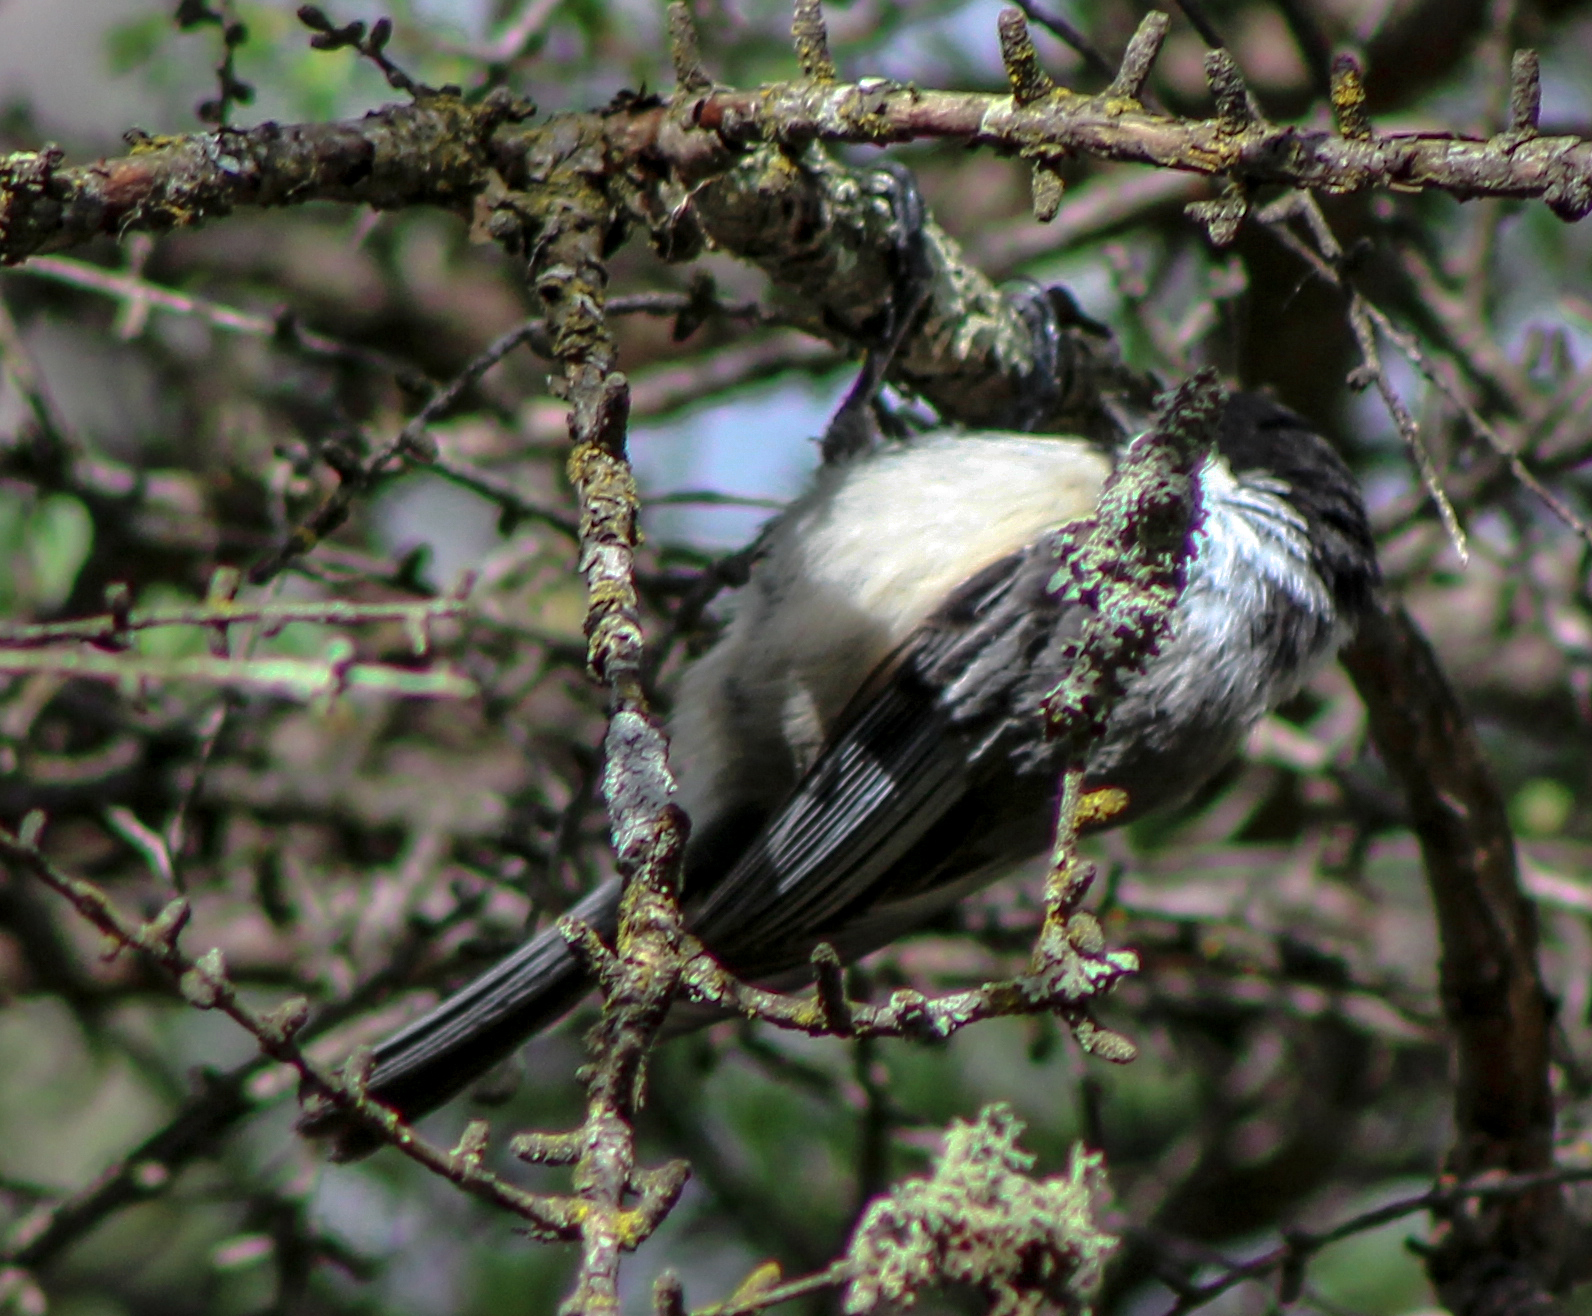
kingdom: Animalia
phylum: Chordata
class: Aves
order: Passeriformes
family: Paridae
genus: Poecile
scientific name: Poecile atricapillus
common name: Black-capped chickadee
